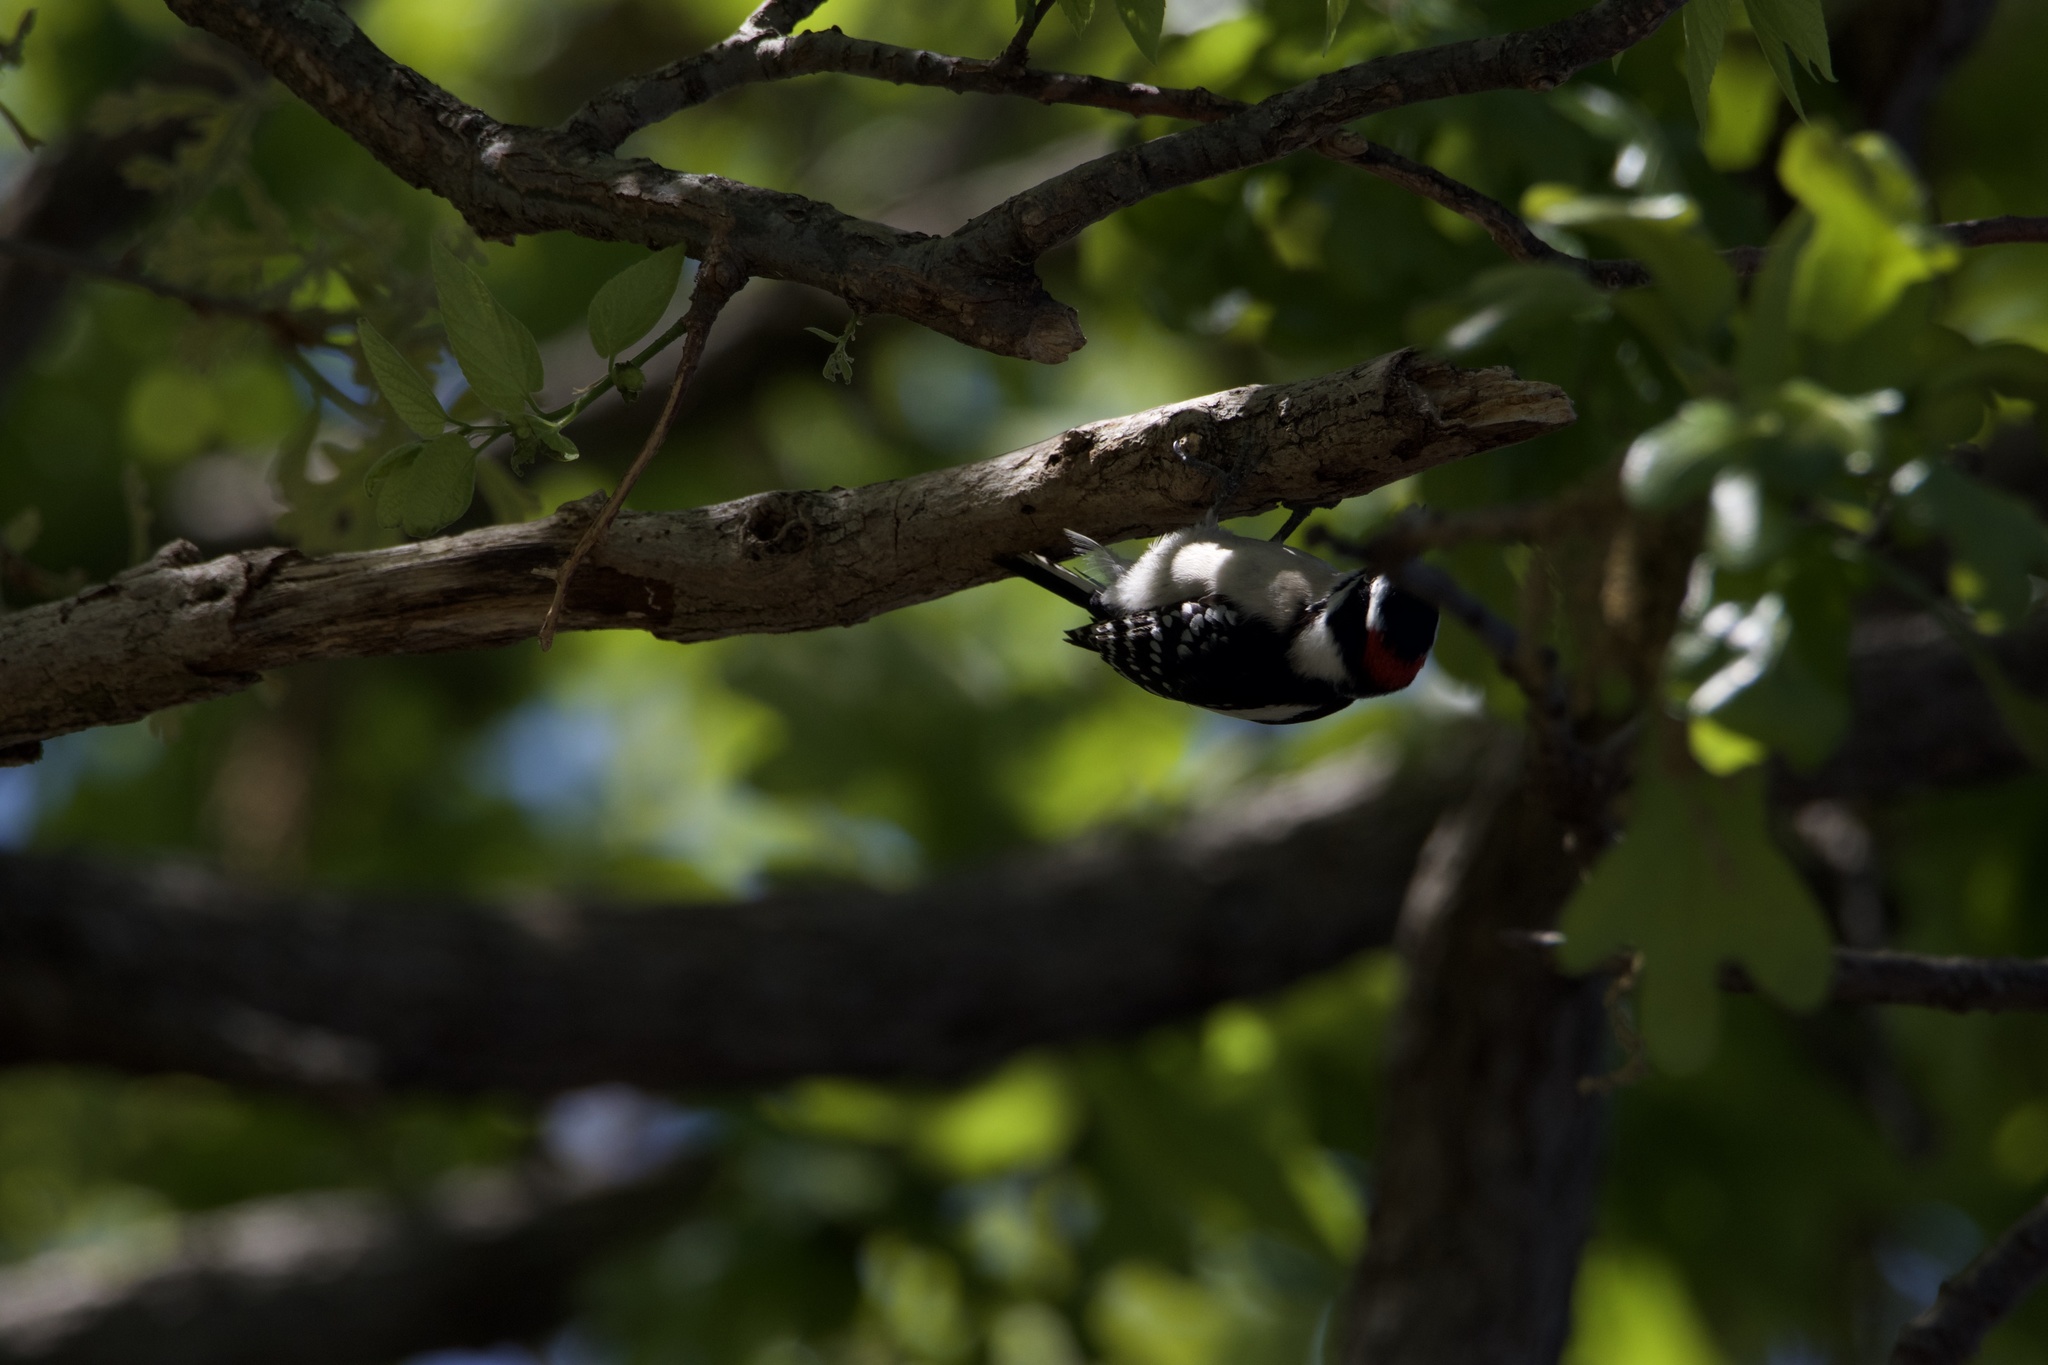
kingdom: Animalia
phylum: Chordata
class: Aves
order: Piciformes
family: Picidae
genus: Dryobates
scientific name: Dryobates pubescens
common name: Downy woodpecker
